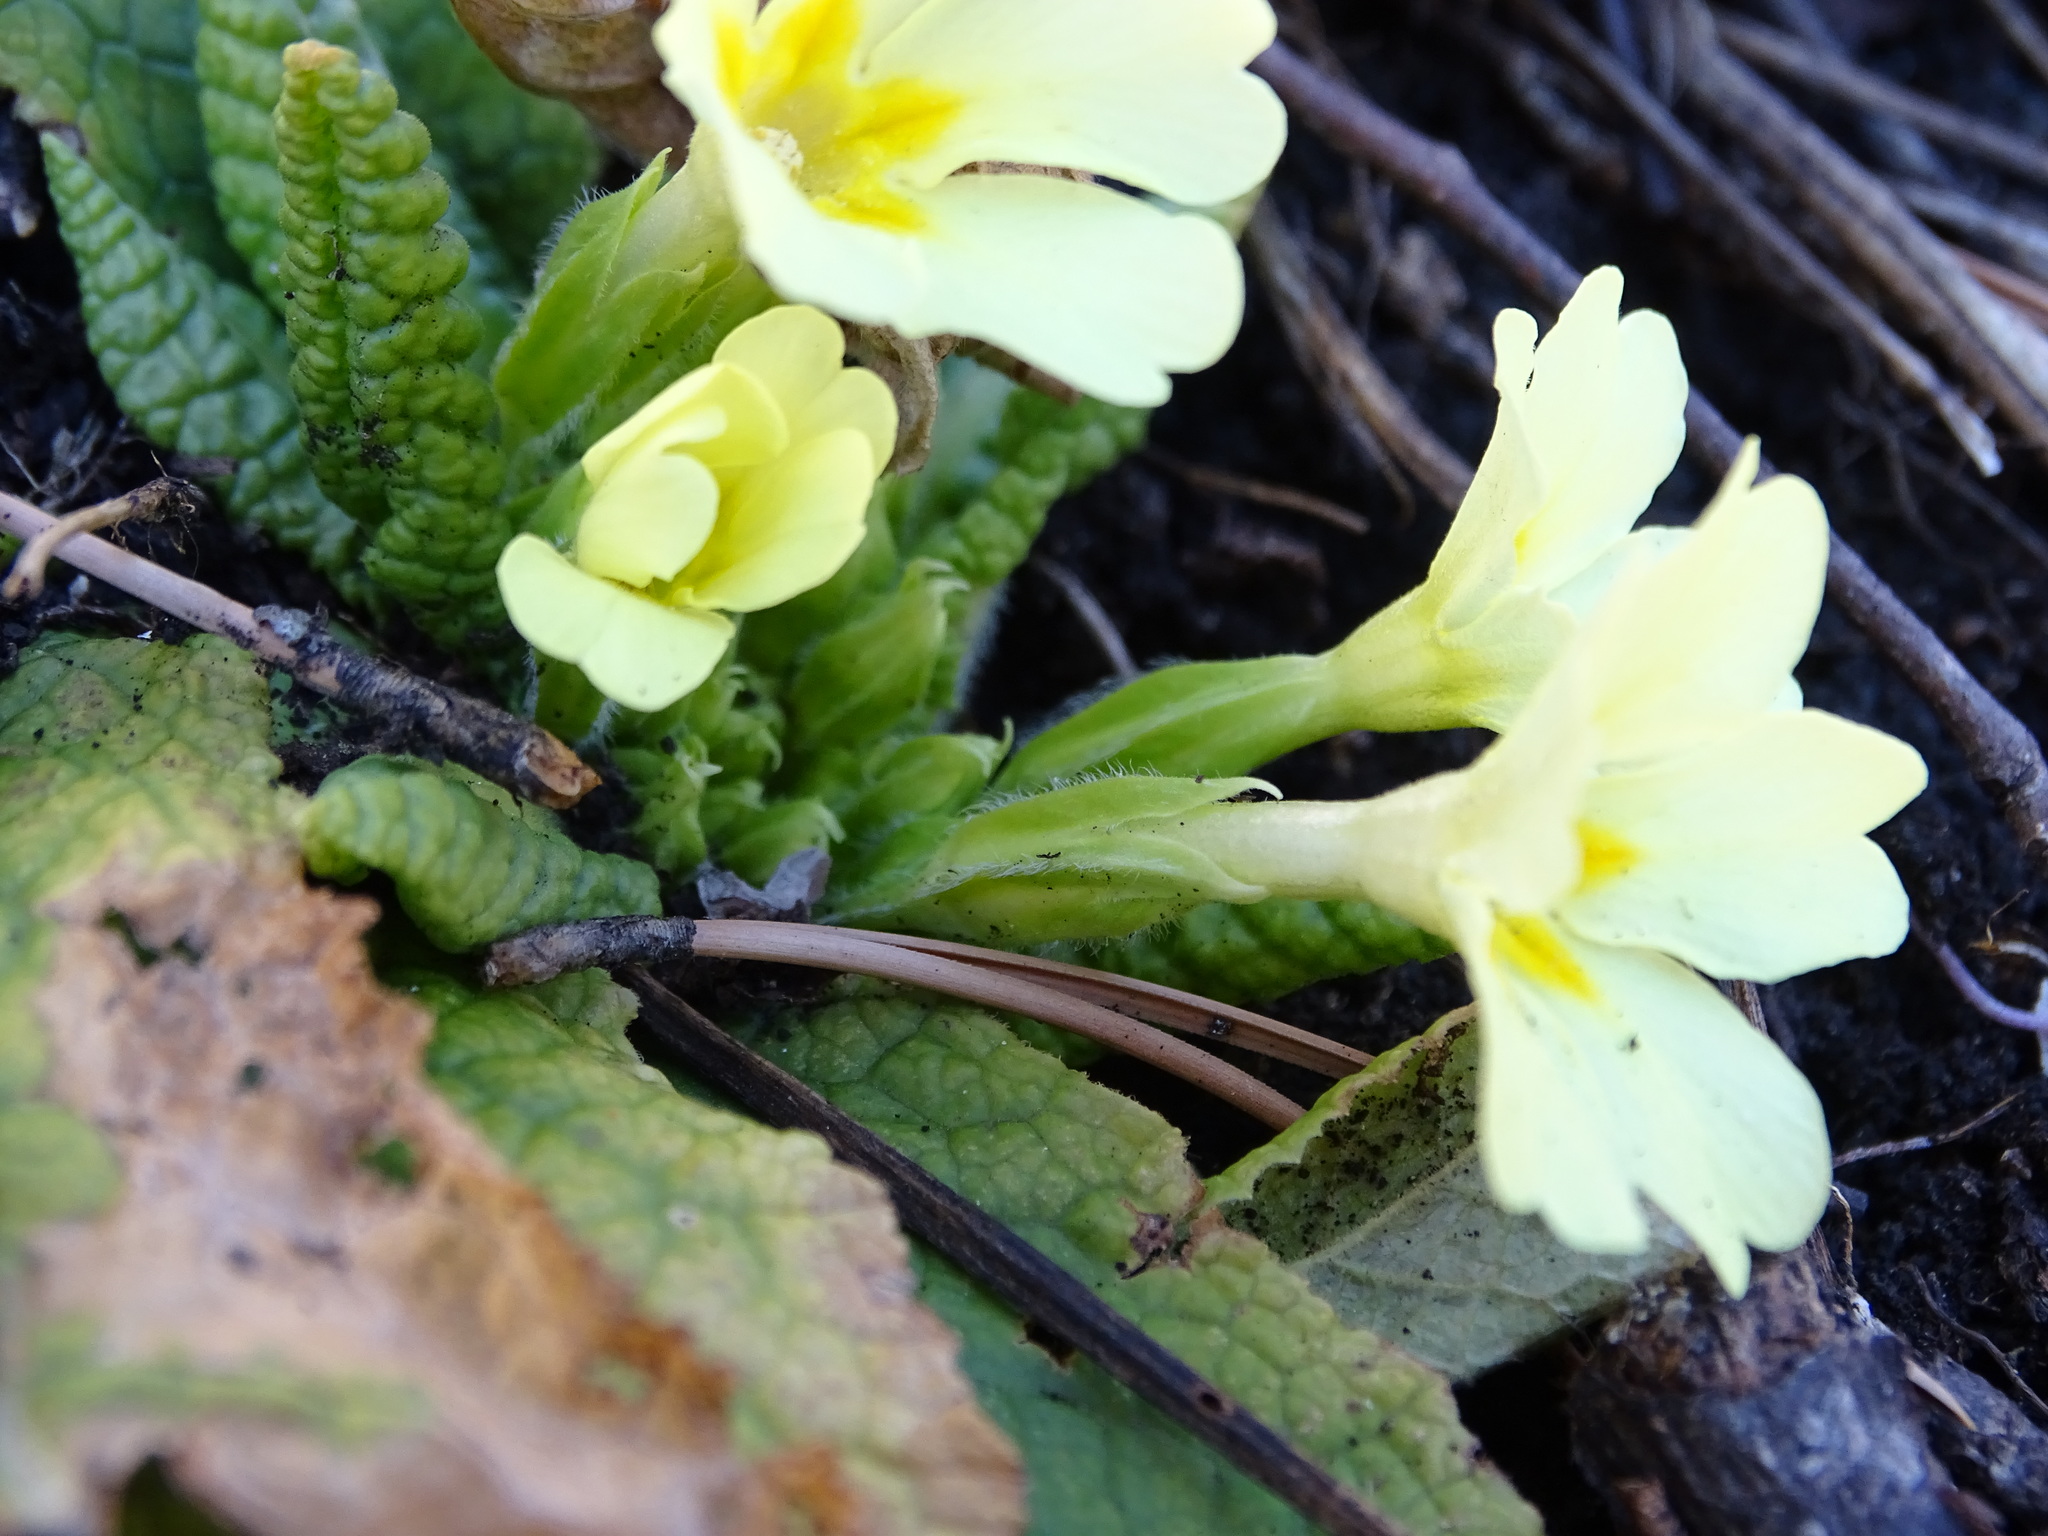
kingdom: Plantae
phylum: Tracheophyta
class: Magnoliopsida
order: Ericales
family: Primulaceae
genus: Primula
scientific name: Primula vulgaris
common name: Primrose
